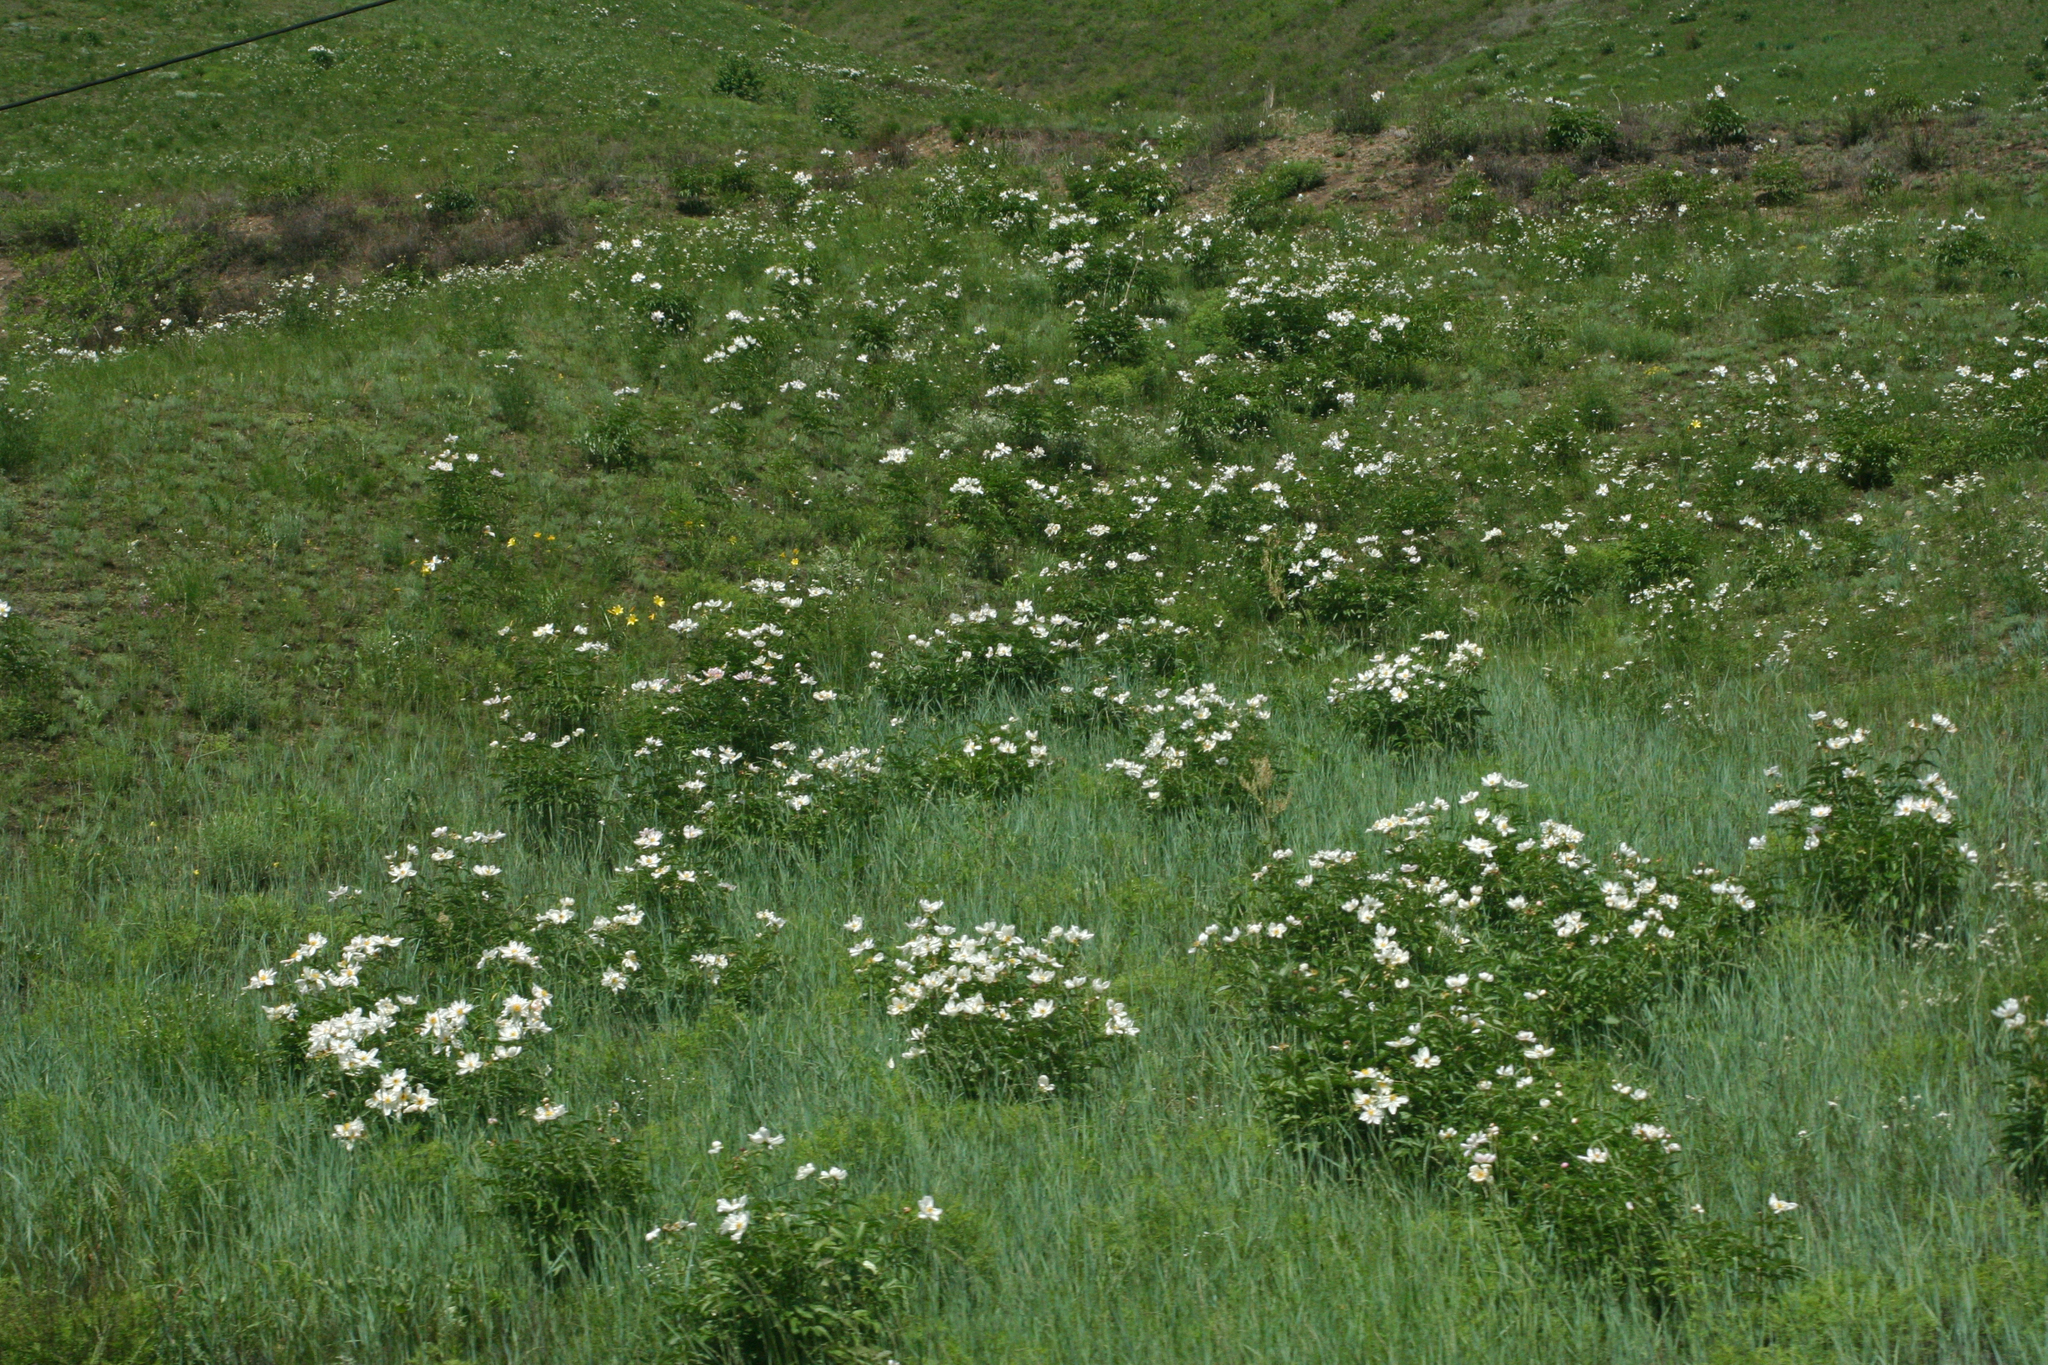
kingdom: Plantae
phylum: Tracheophyta
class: Magnoliopsida
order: Saxifragales
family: Paeoniaceae
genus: Paeonia
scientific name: Paeonia lactiflora
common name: Chinese peony
